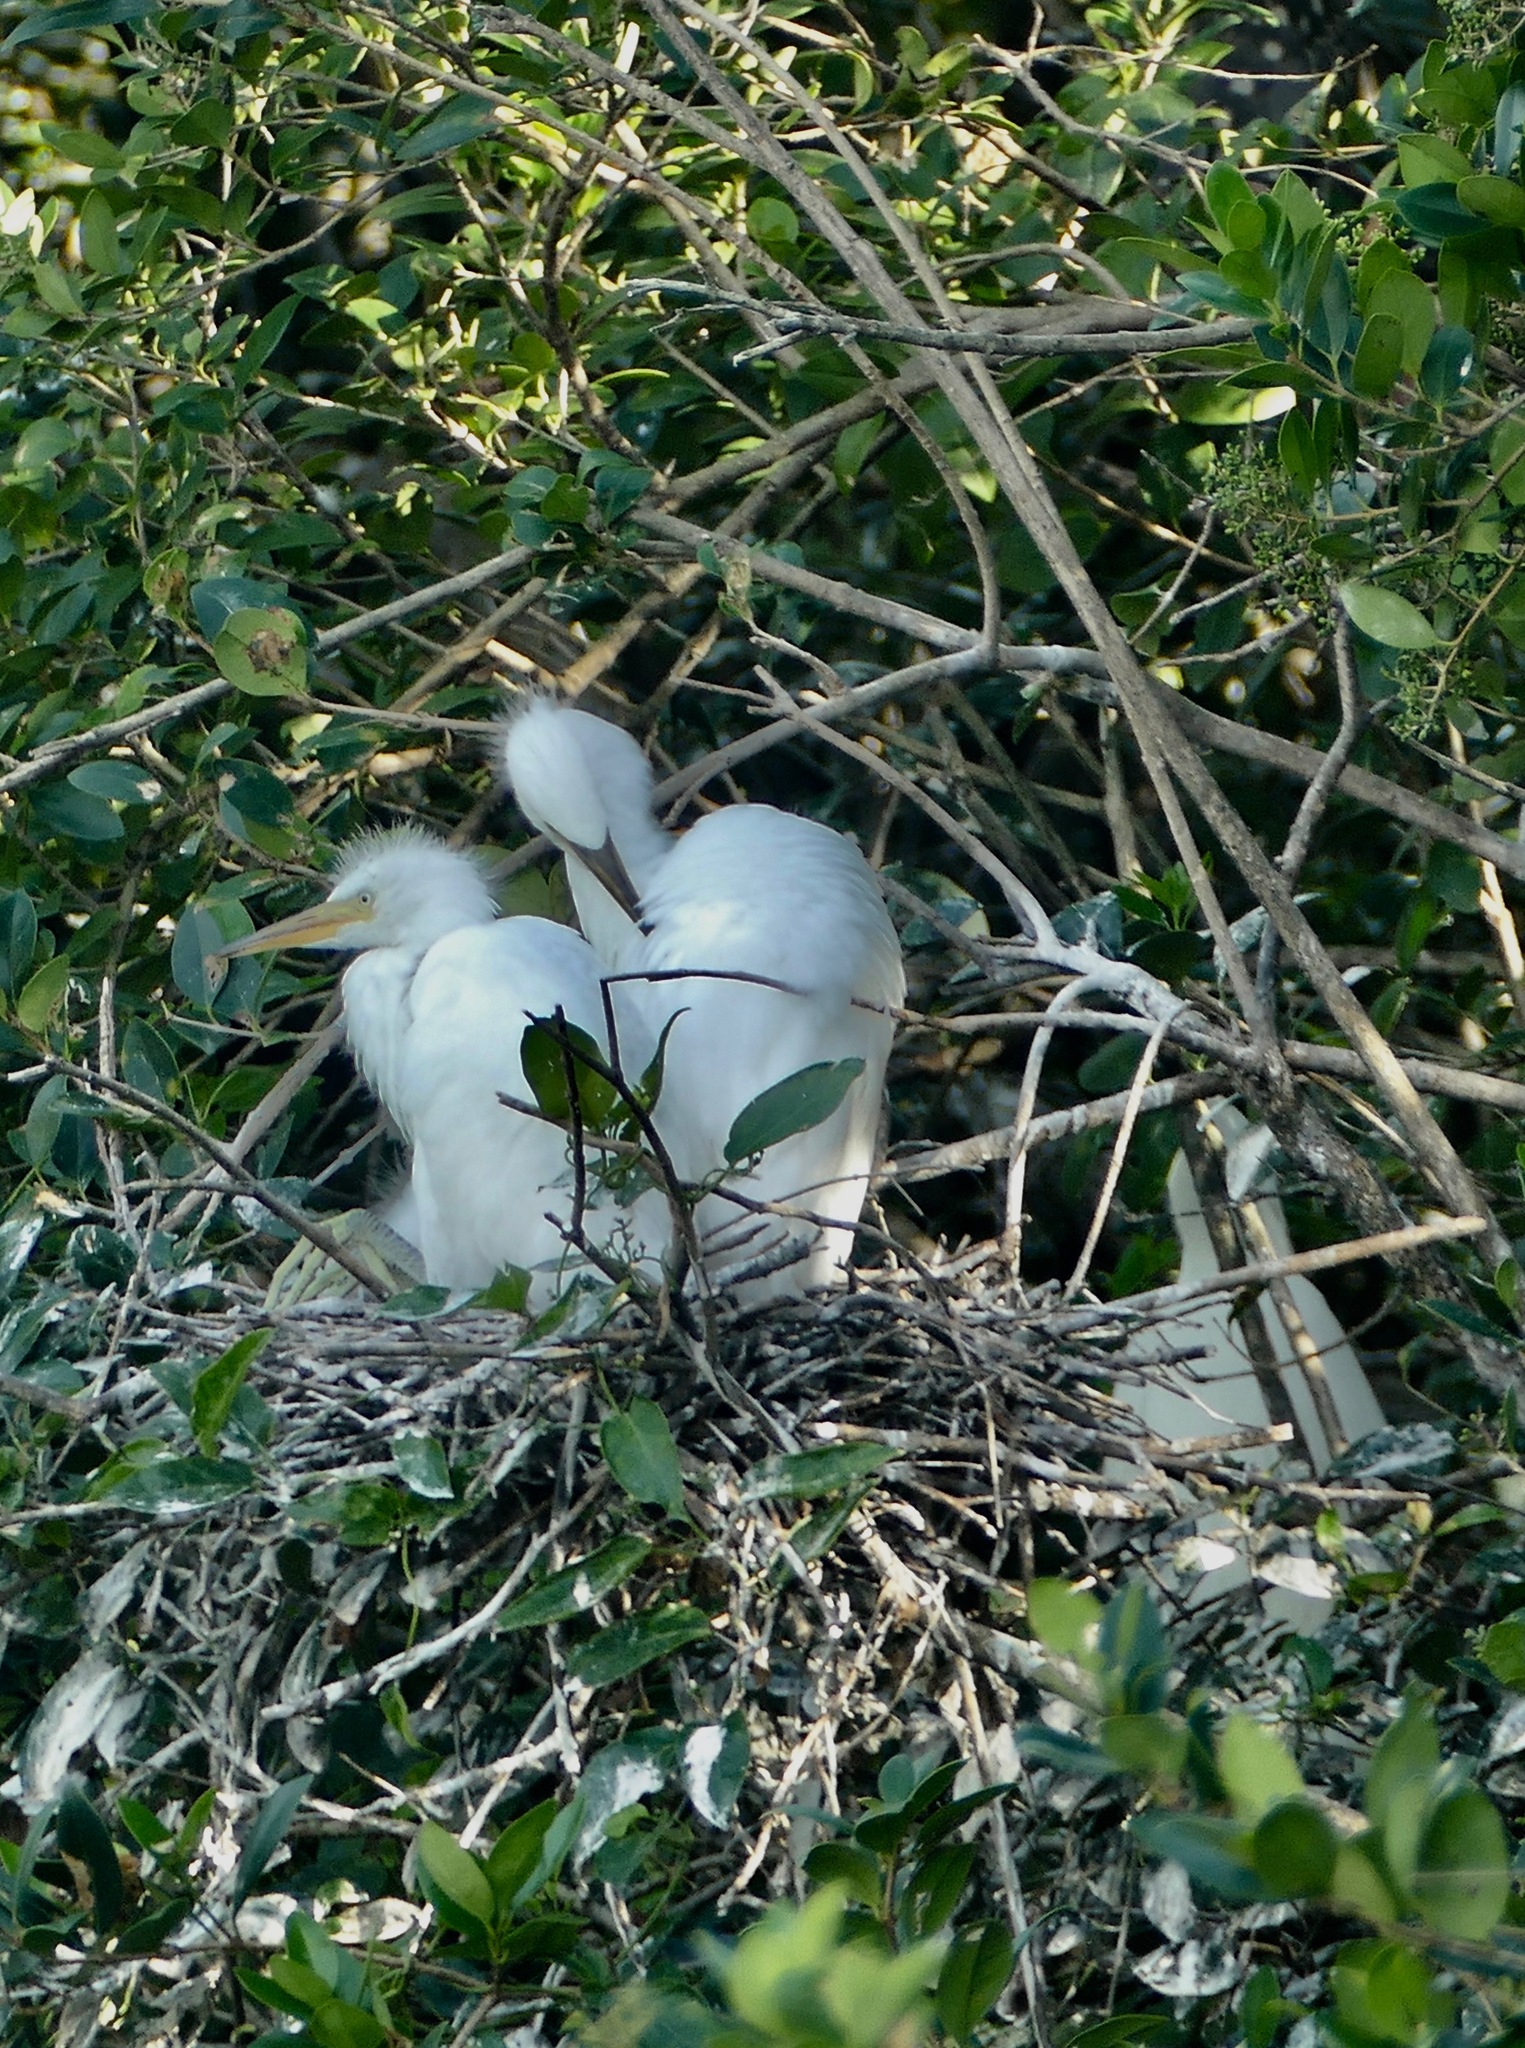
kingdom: Animalia
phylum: Chordata
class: Aves
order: Pelecaniformes
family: Ardeidae
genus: Bubulcus
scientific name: Bubulcus coromandus
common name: Eastern cattle egret
